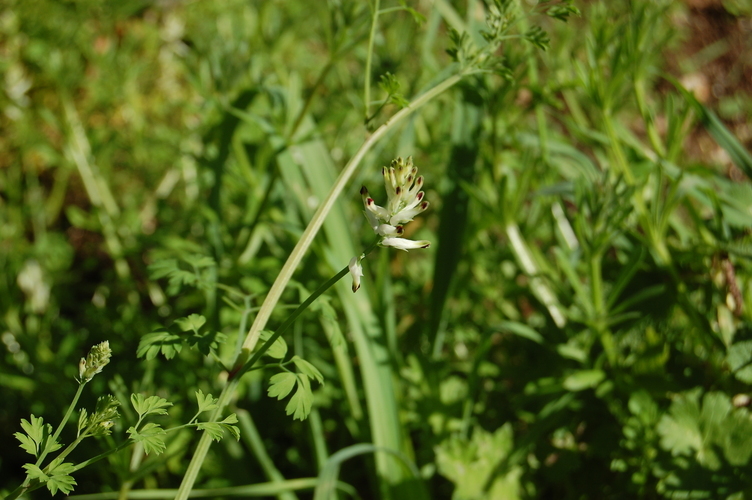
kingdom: Plantae
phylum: Tracheophyta
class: Magnoliopsida
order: Ranunculales
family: Papaveraceae
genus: Fumaria
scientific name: Fumaria capreolata
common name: White ramping-fumitory
